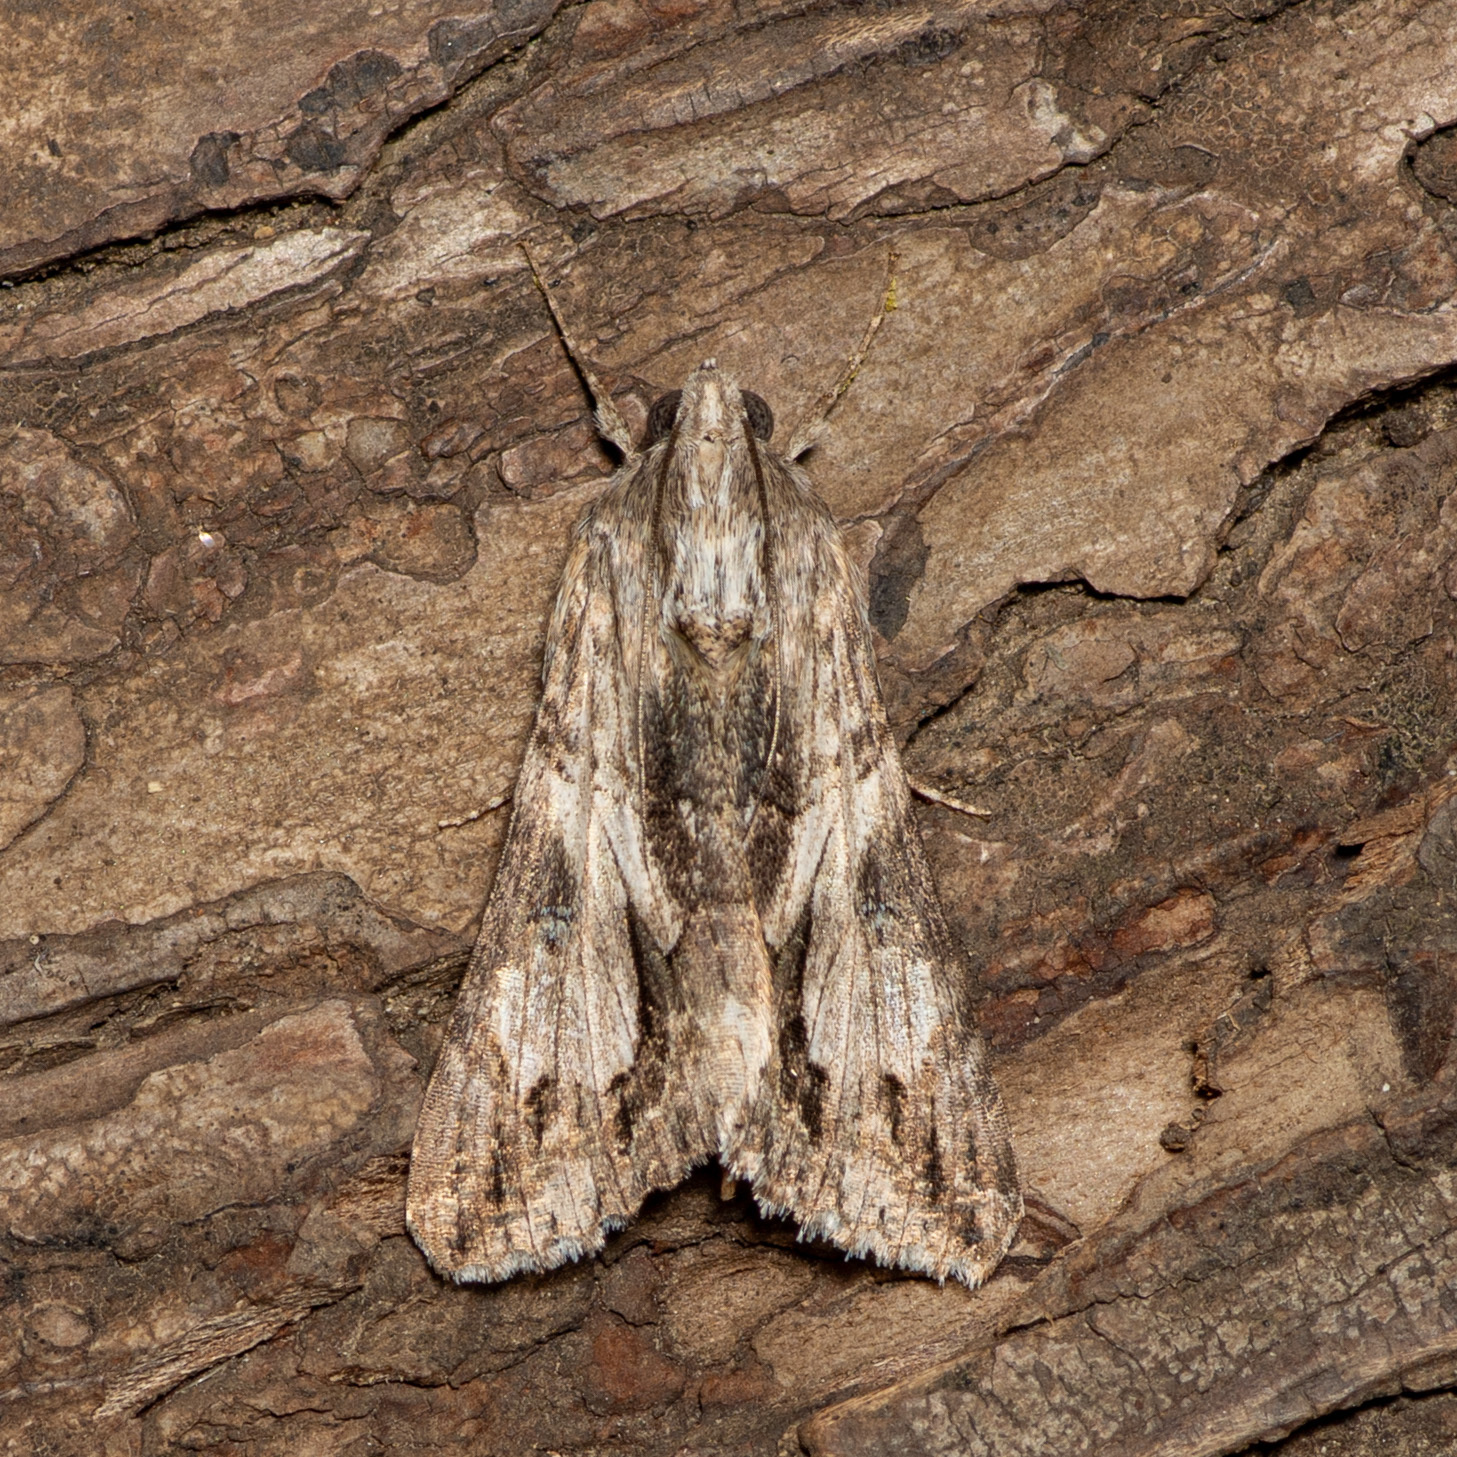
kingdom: Animalia
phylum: Arthropoda
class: Insecta
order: Lepidoptera
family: Erebidae
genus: Melipotis
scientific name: Melipotis jucunda
